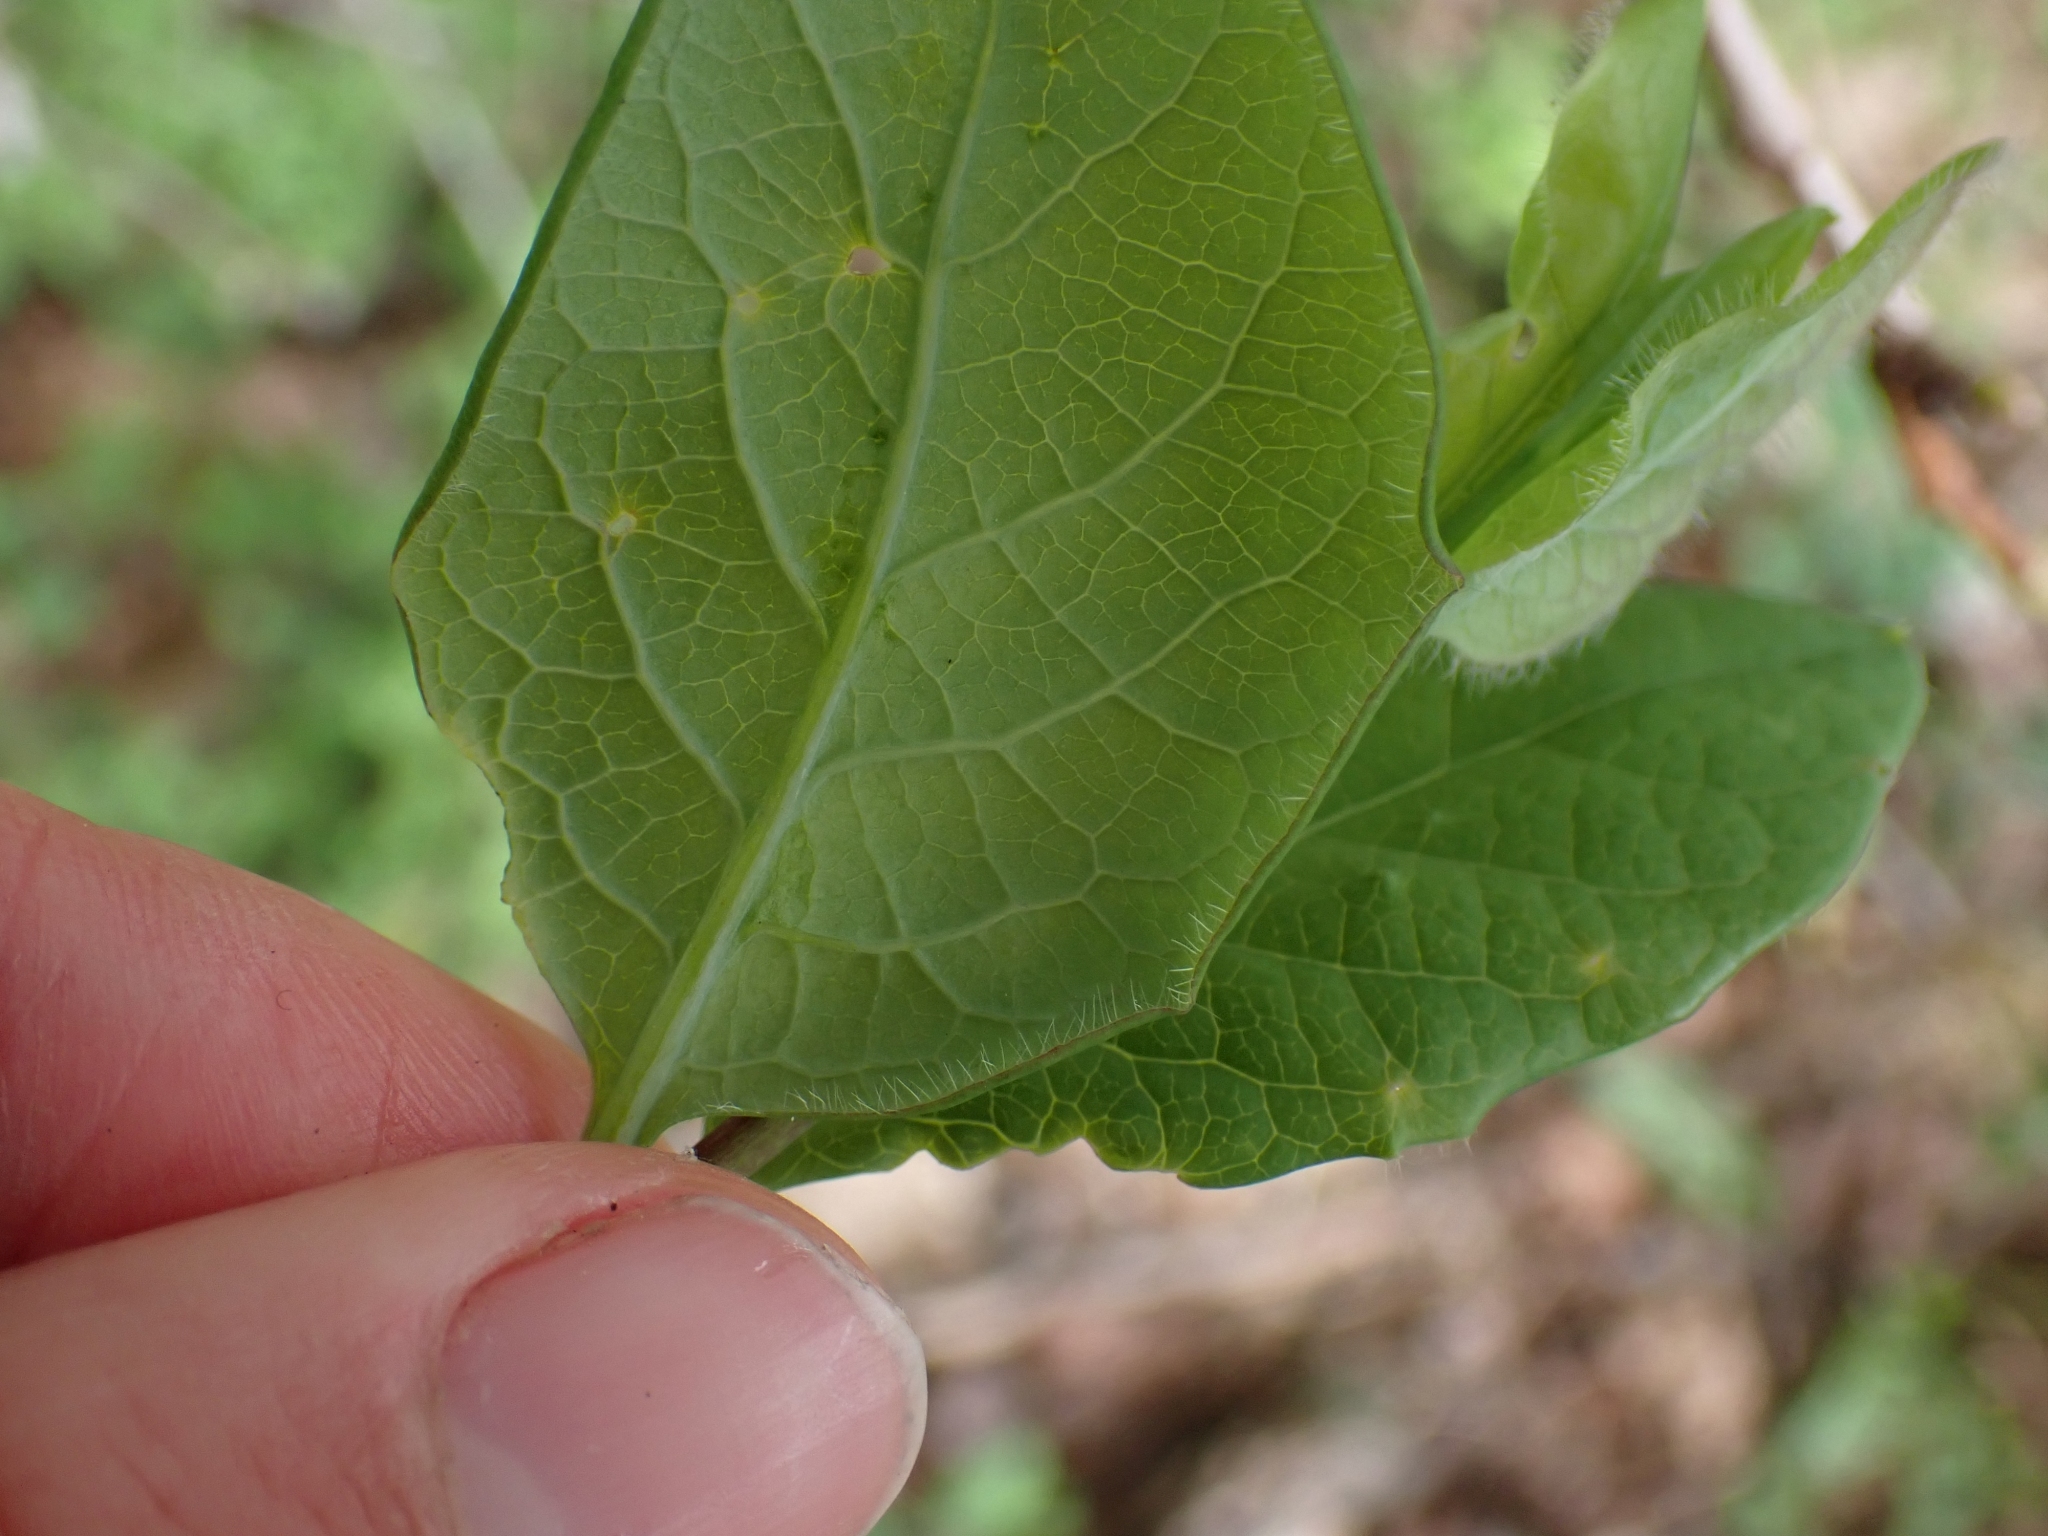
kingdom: Plantae
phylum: Tracheophyta
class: Magnoliopsida
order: Dipsacales
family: Caprifoliaceae
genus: Lonicera
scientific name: Lonicera ciliosa
